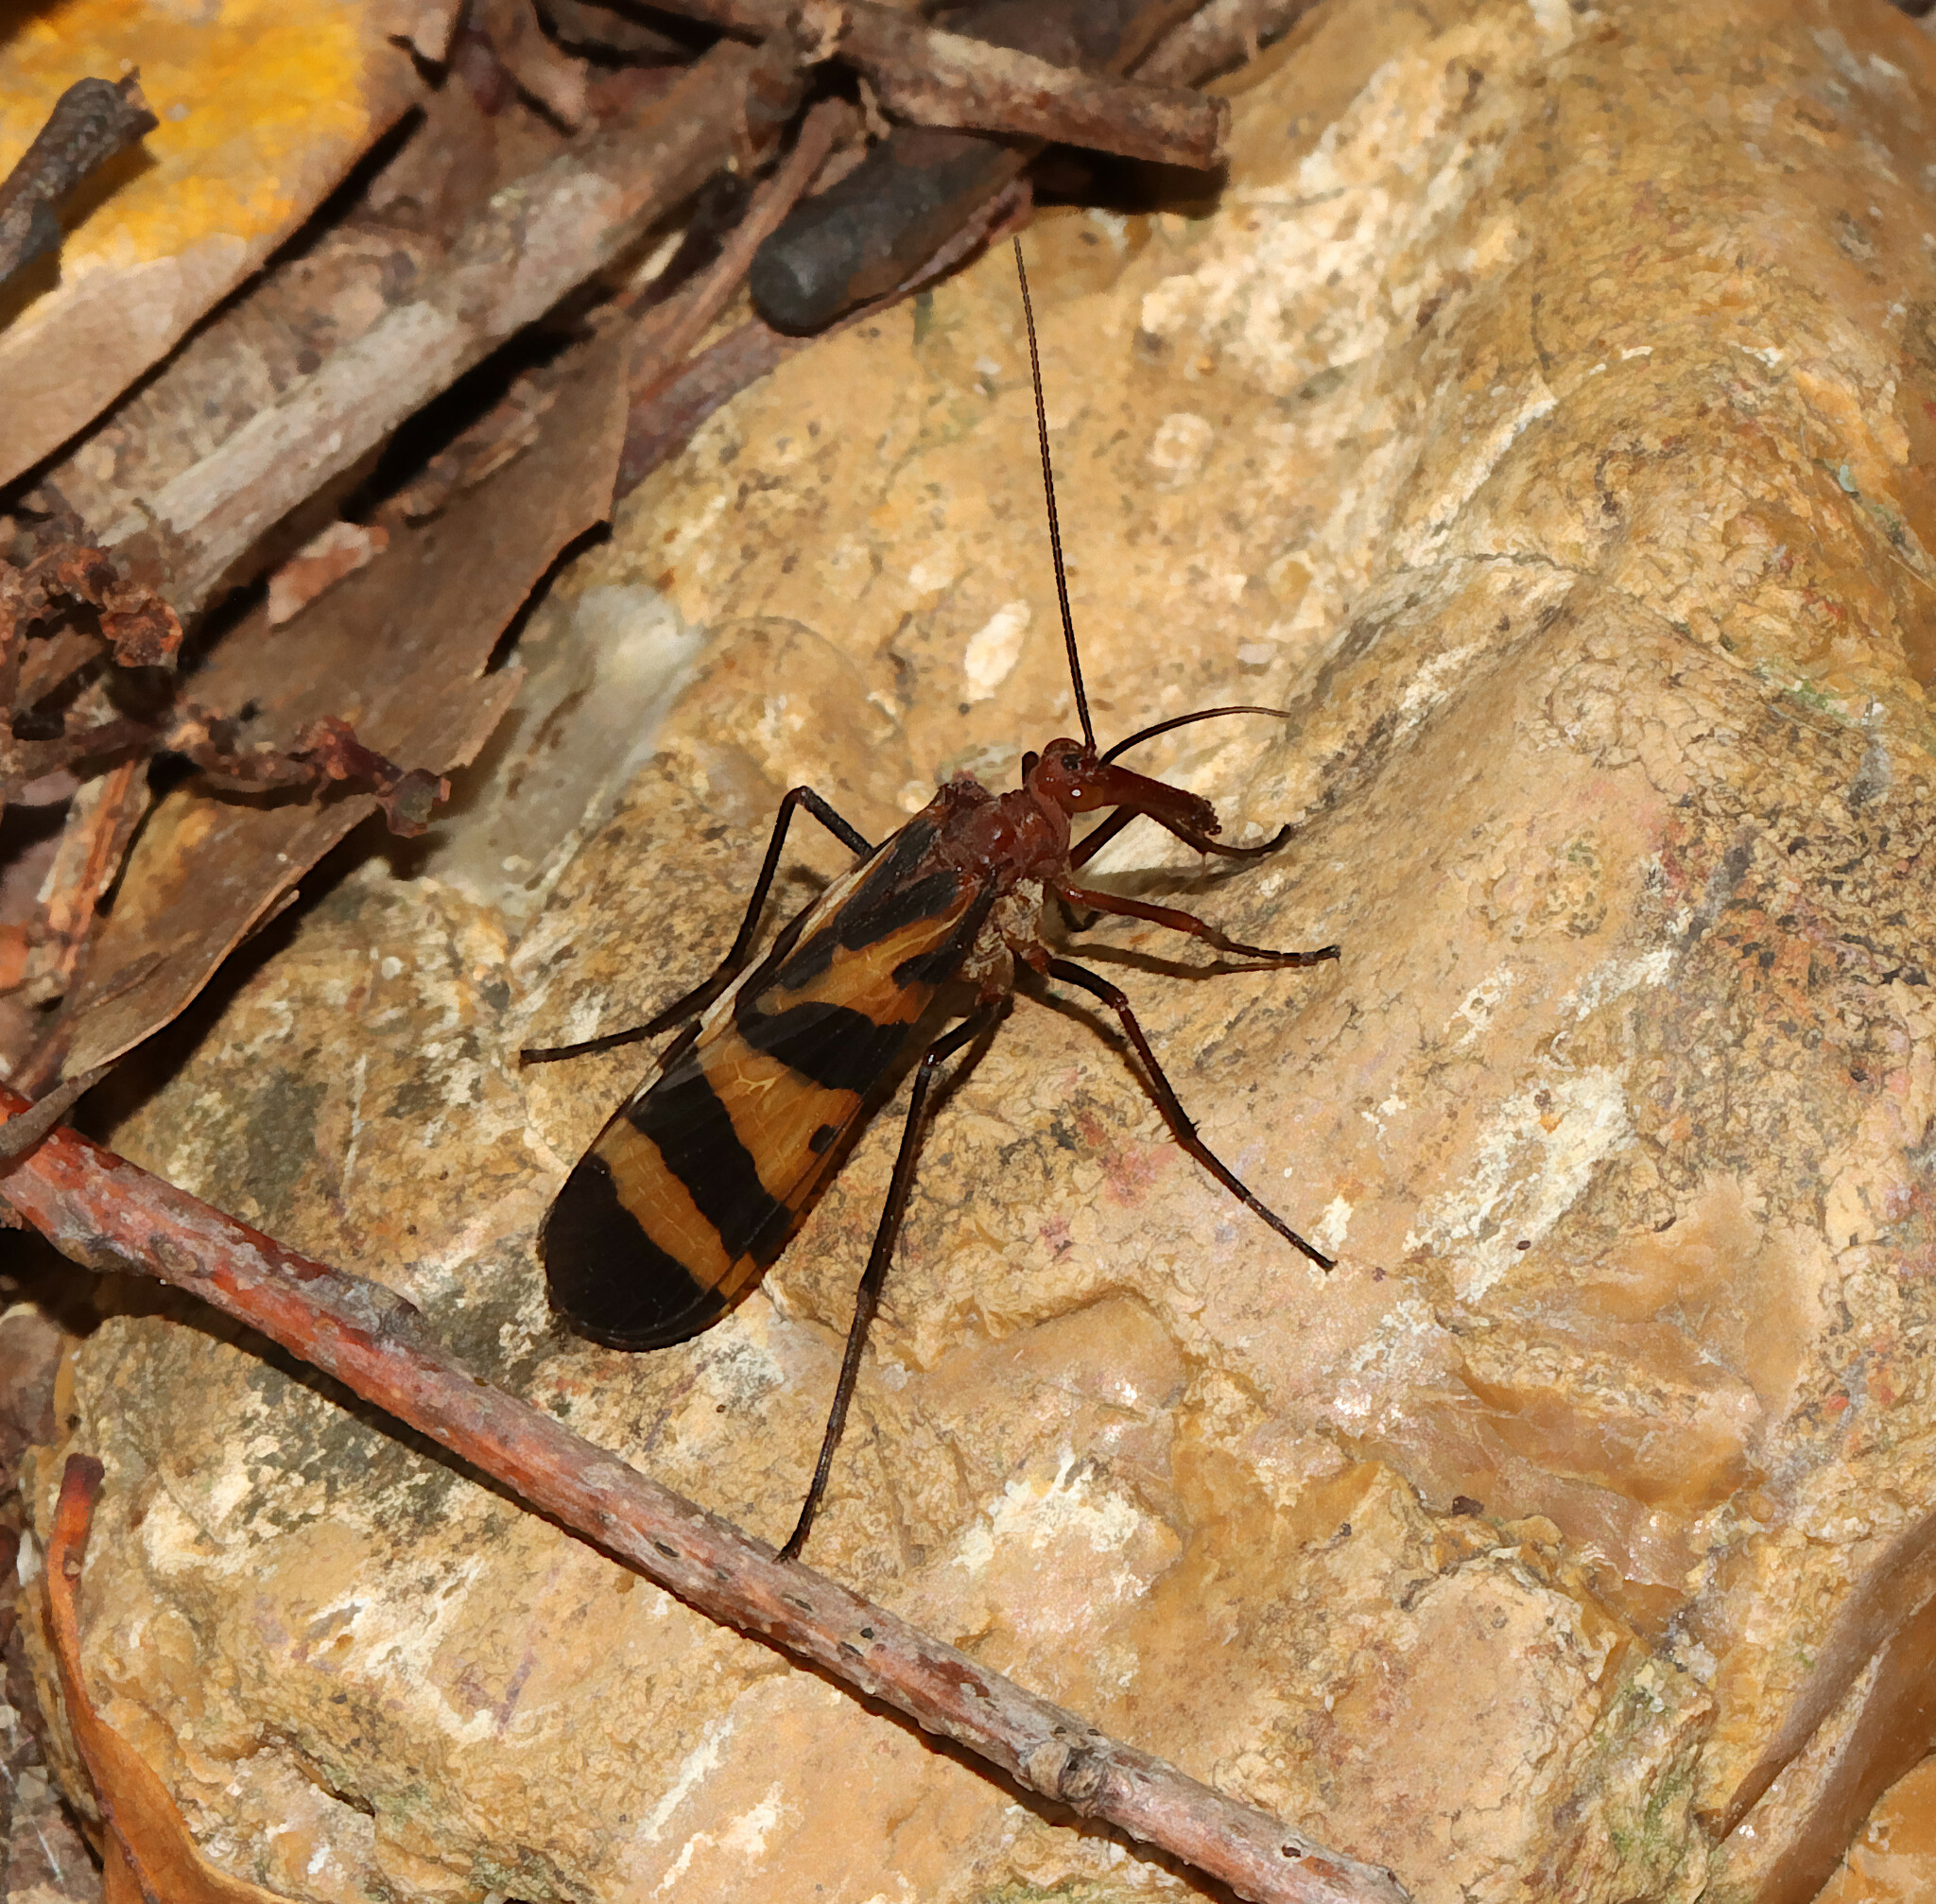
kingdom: Animalia
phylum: Arthropoda
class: Insecta
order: Mecoptera
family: Panorpidae
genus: Panorpa
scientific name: Panorpa nuptialis
